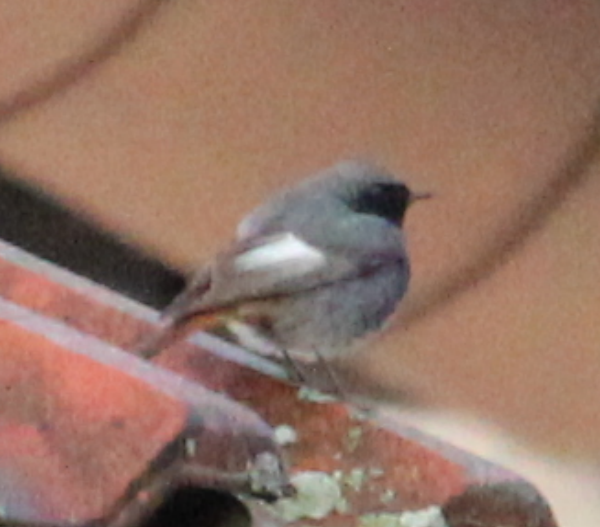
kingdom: Animalia
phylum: Chordata
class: Aves
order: Passeriformes
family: Muscicapidae
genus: Phoenicurus
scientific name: Phoenicurus ochruros
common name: Black redstart
